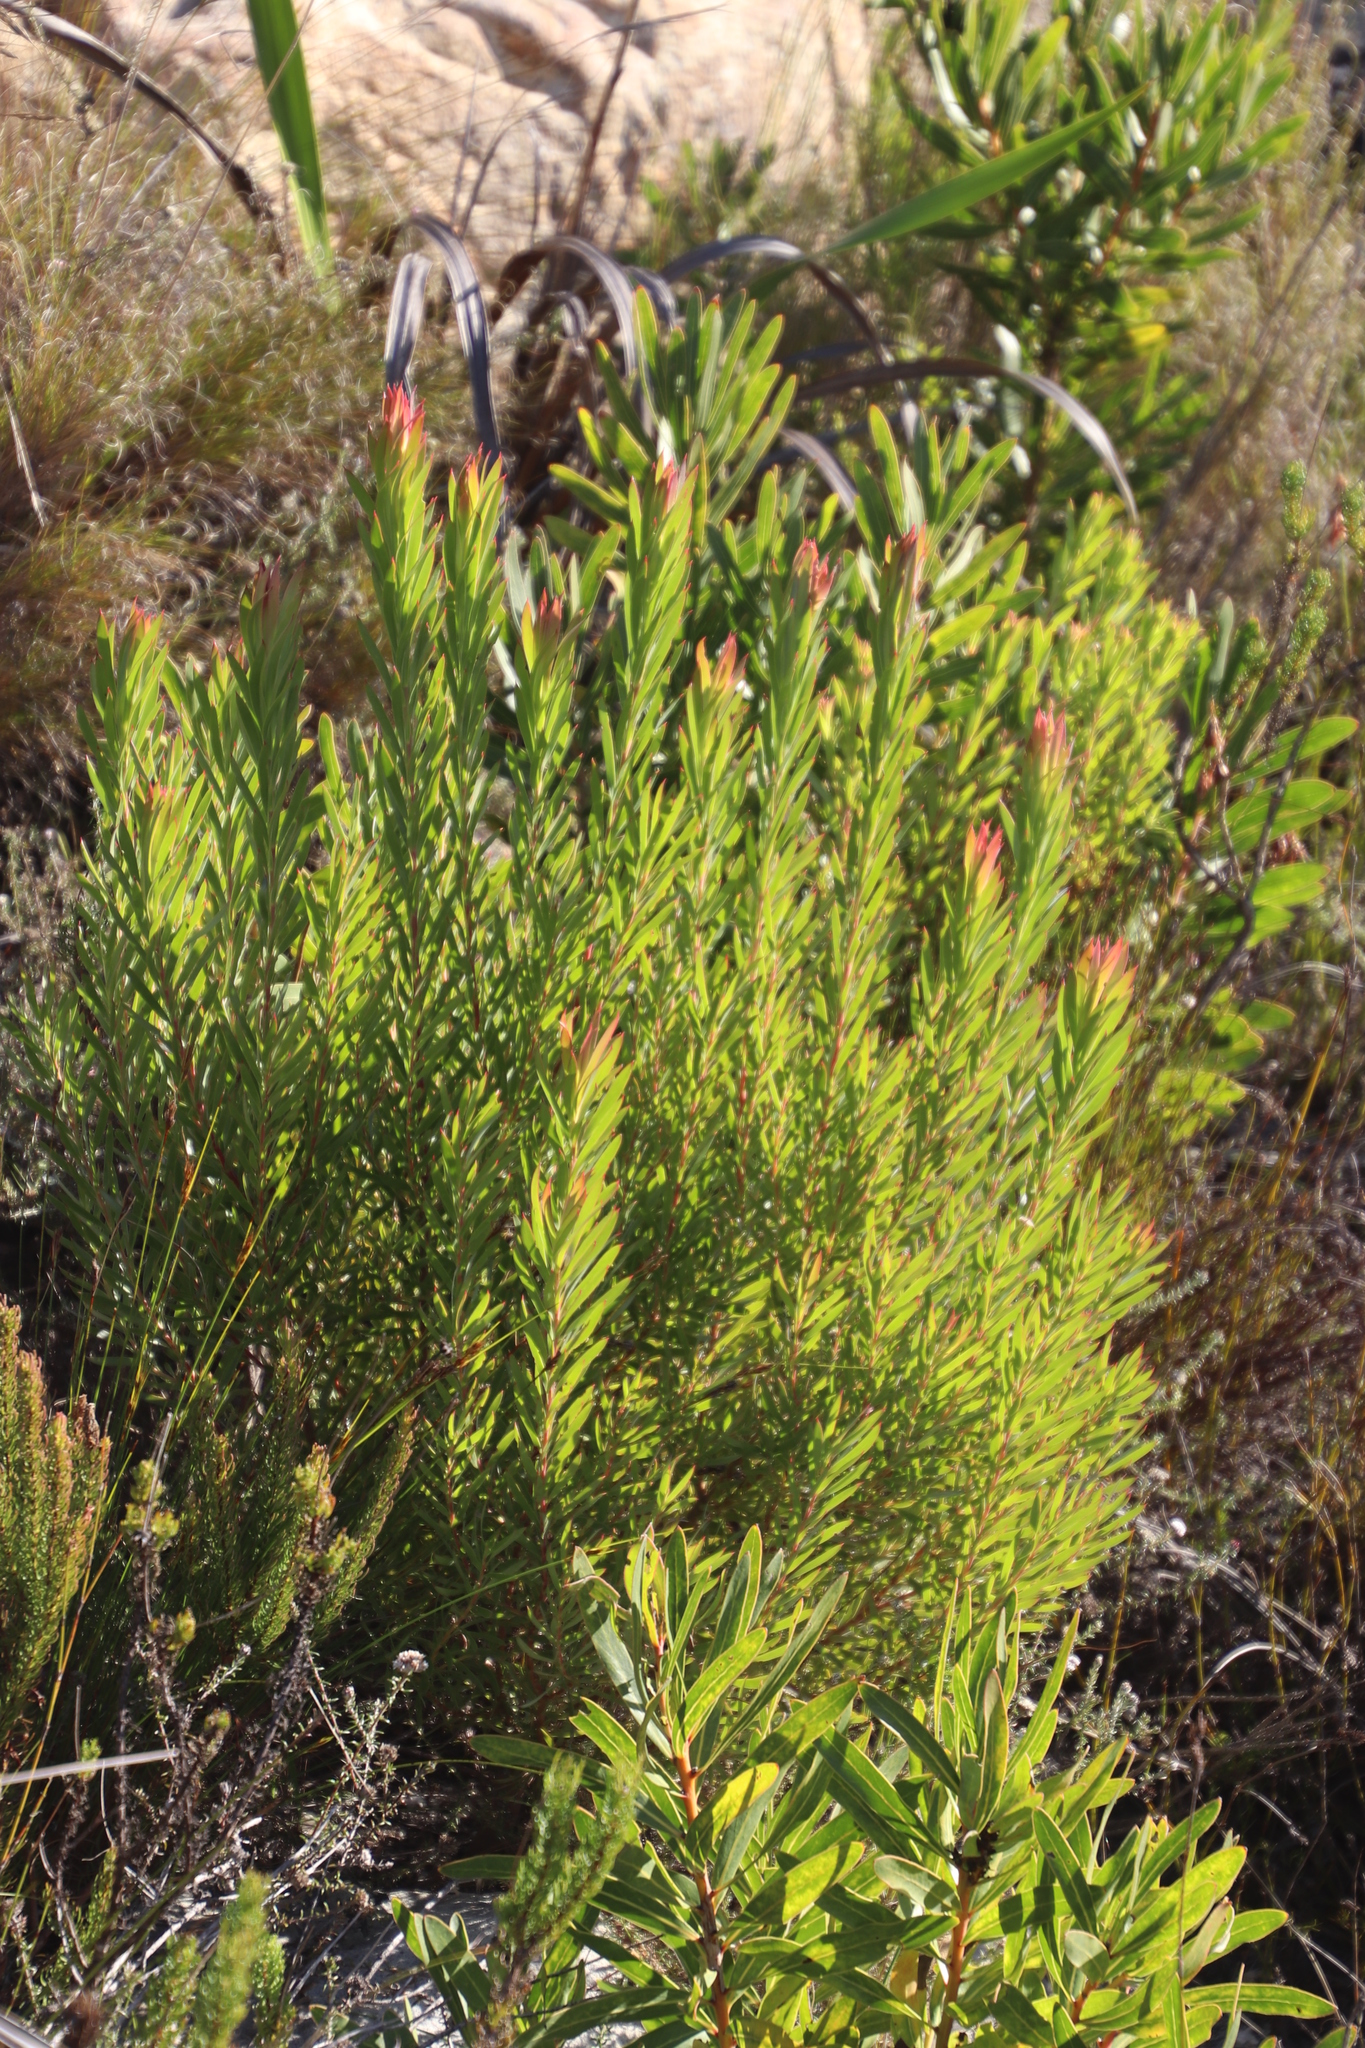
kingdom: Plantae
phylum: Tracheophyta
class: Magnoliopsida
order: Proteales
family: Proteaceae
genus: Leucadendron
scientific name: Leucadendron xanthoconus
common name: Sickle-leaf conebush
